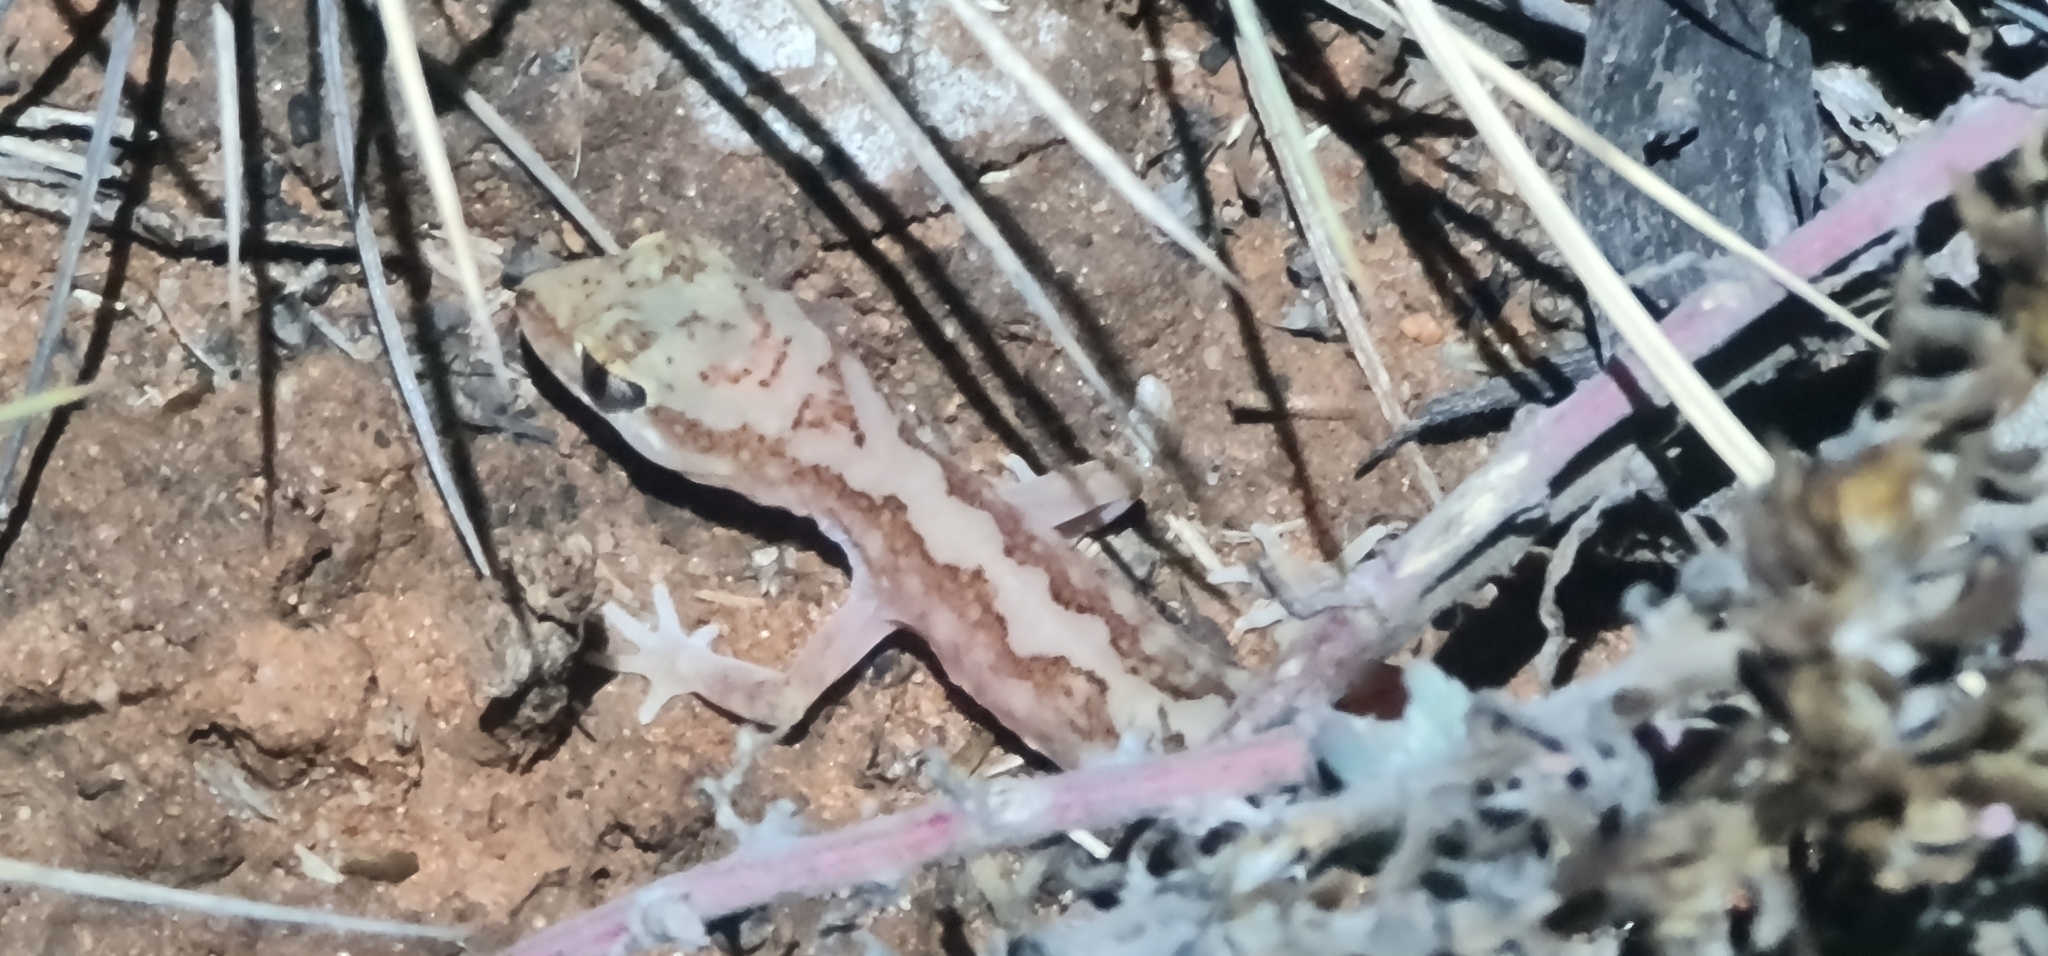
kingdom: Animalia
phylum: Chordata
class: Squamata
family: Diplodactylidae
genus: Lucasium
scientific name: Lucasium damaeum
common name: Beaded gecko
